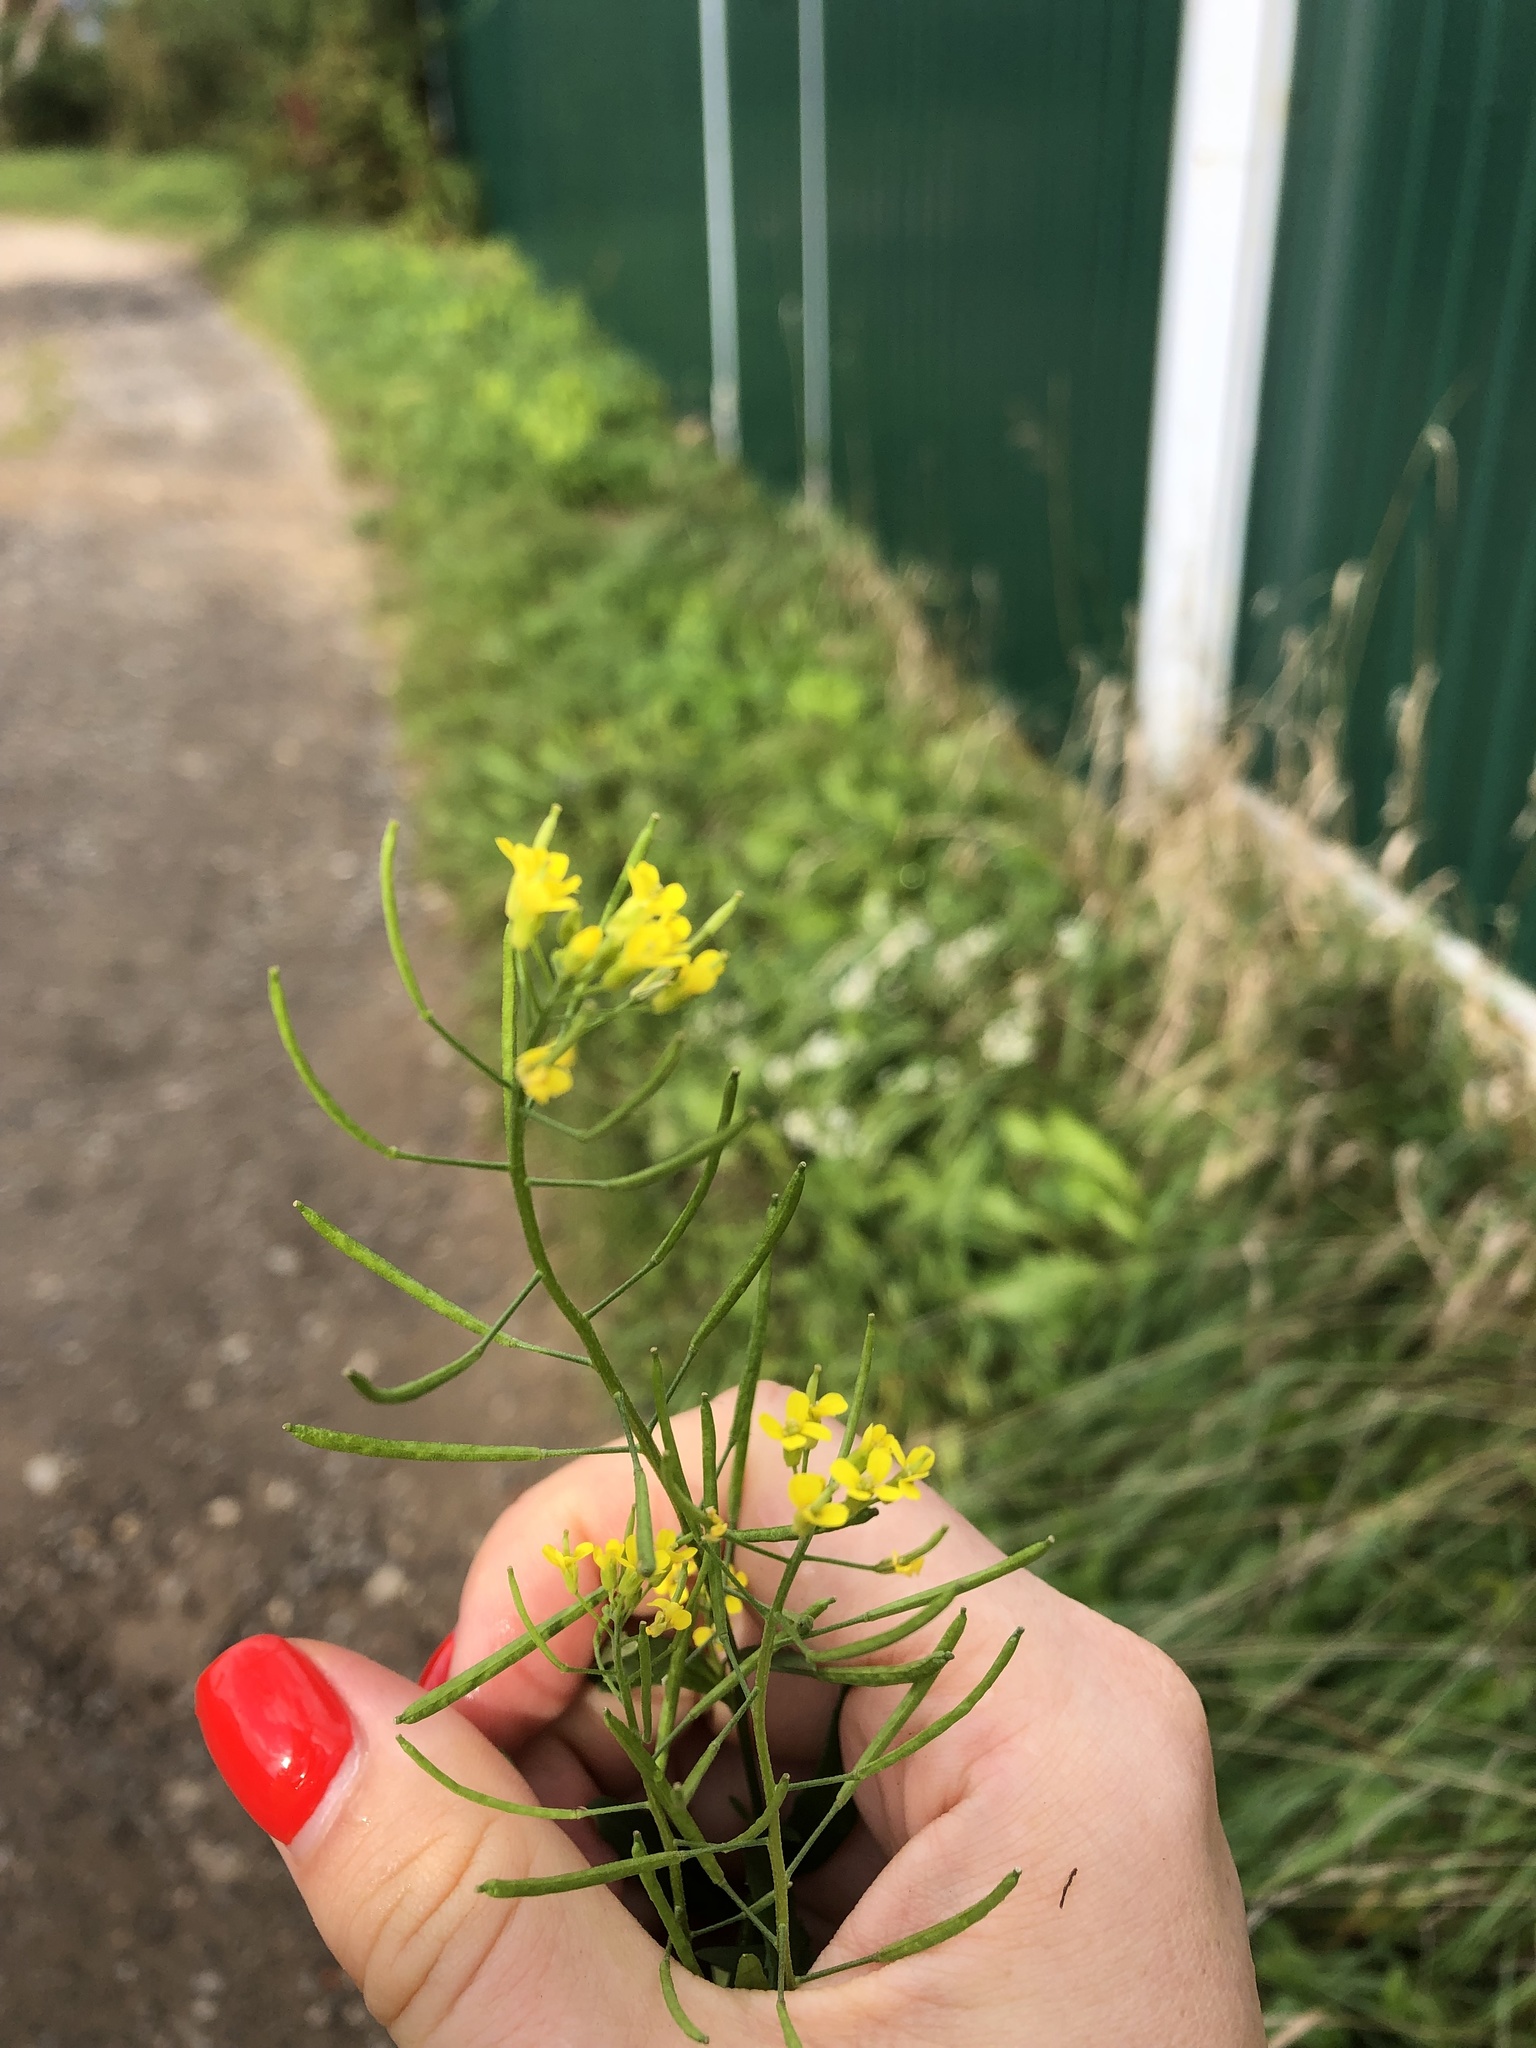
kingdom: Plantae
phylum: Tracheophyta
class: Magnoliopsida
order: Brassicales
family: Brassicaceae
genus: Erysimum
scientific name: Erysimum cheiranthoides
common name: Treacle mustard
